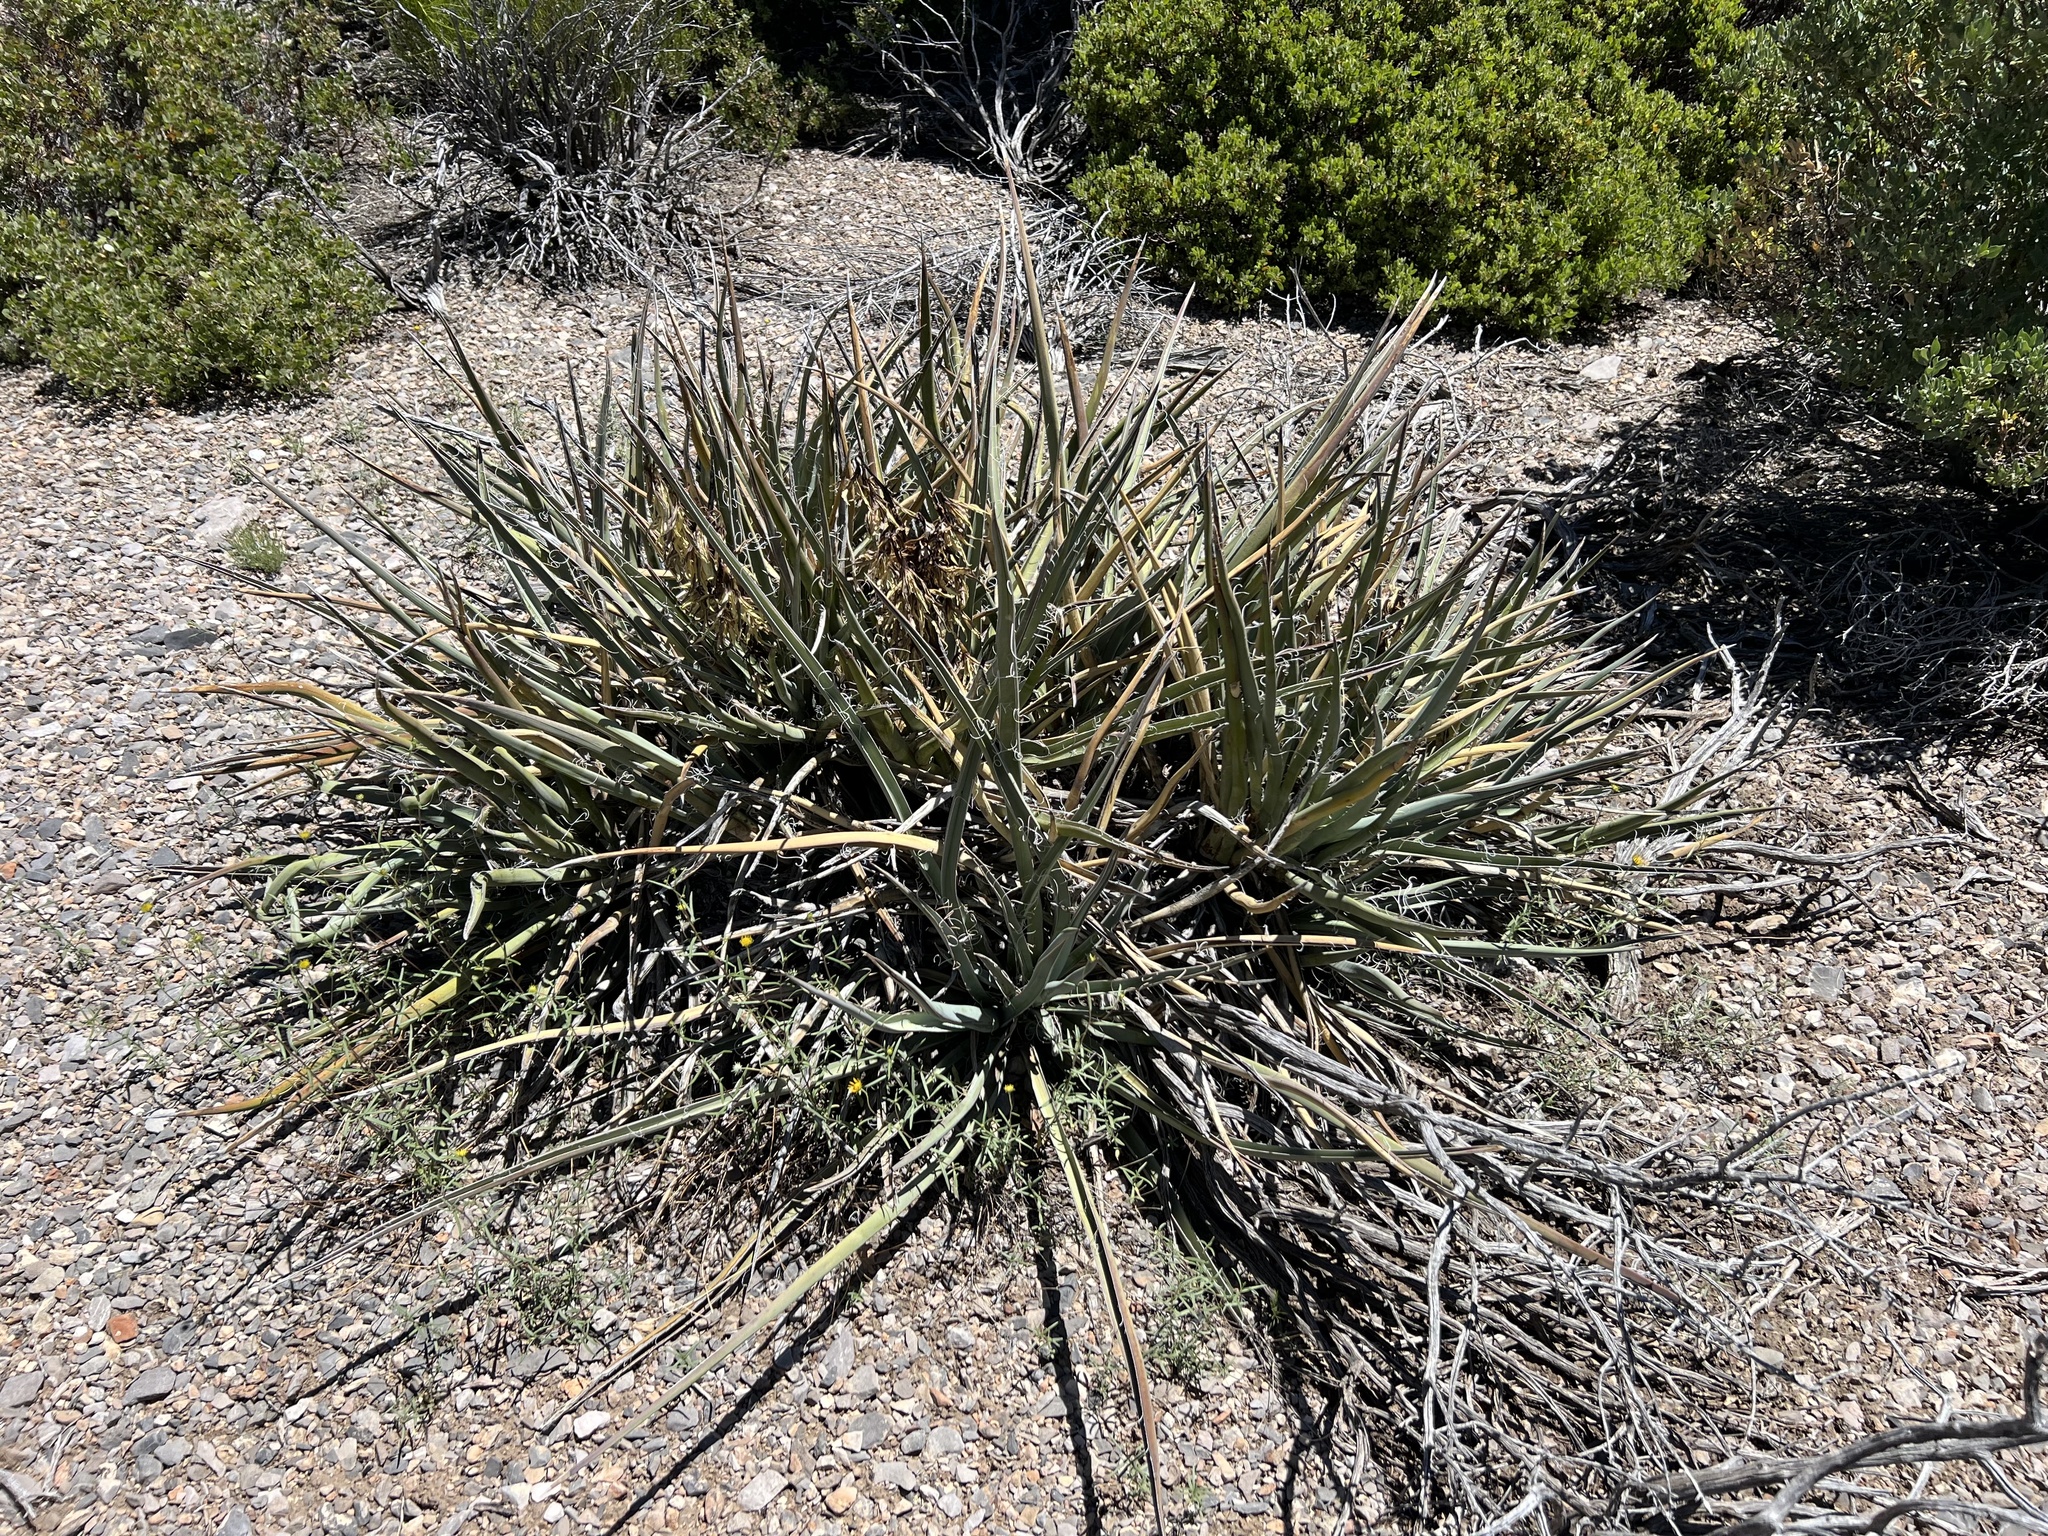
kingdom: Plantae
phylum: Tracheophyta
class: Liliopsida
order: Asparagales
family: Asparagaceae
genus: Yucca
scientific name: Yucca baccata
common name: Banana yucca
